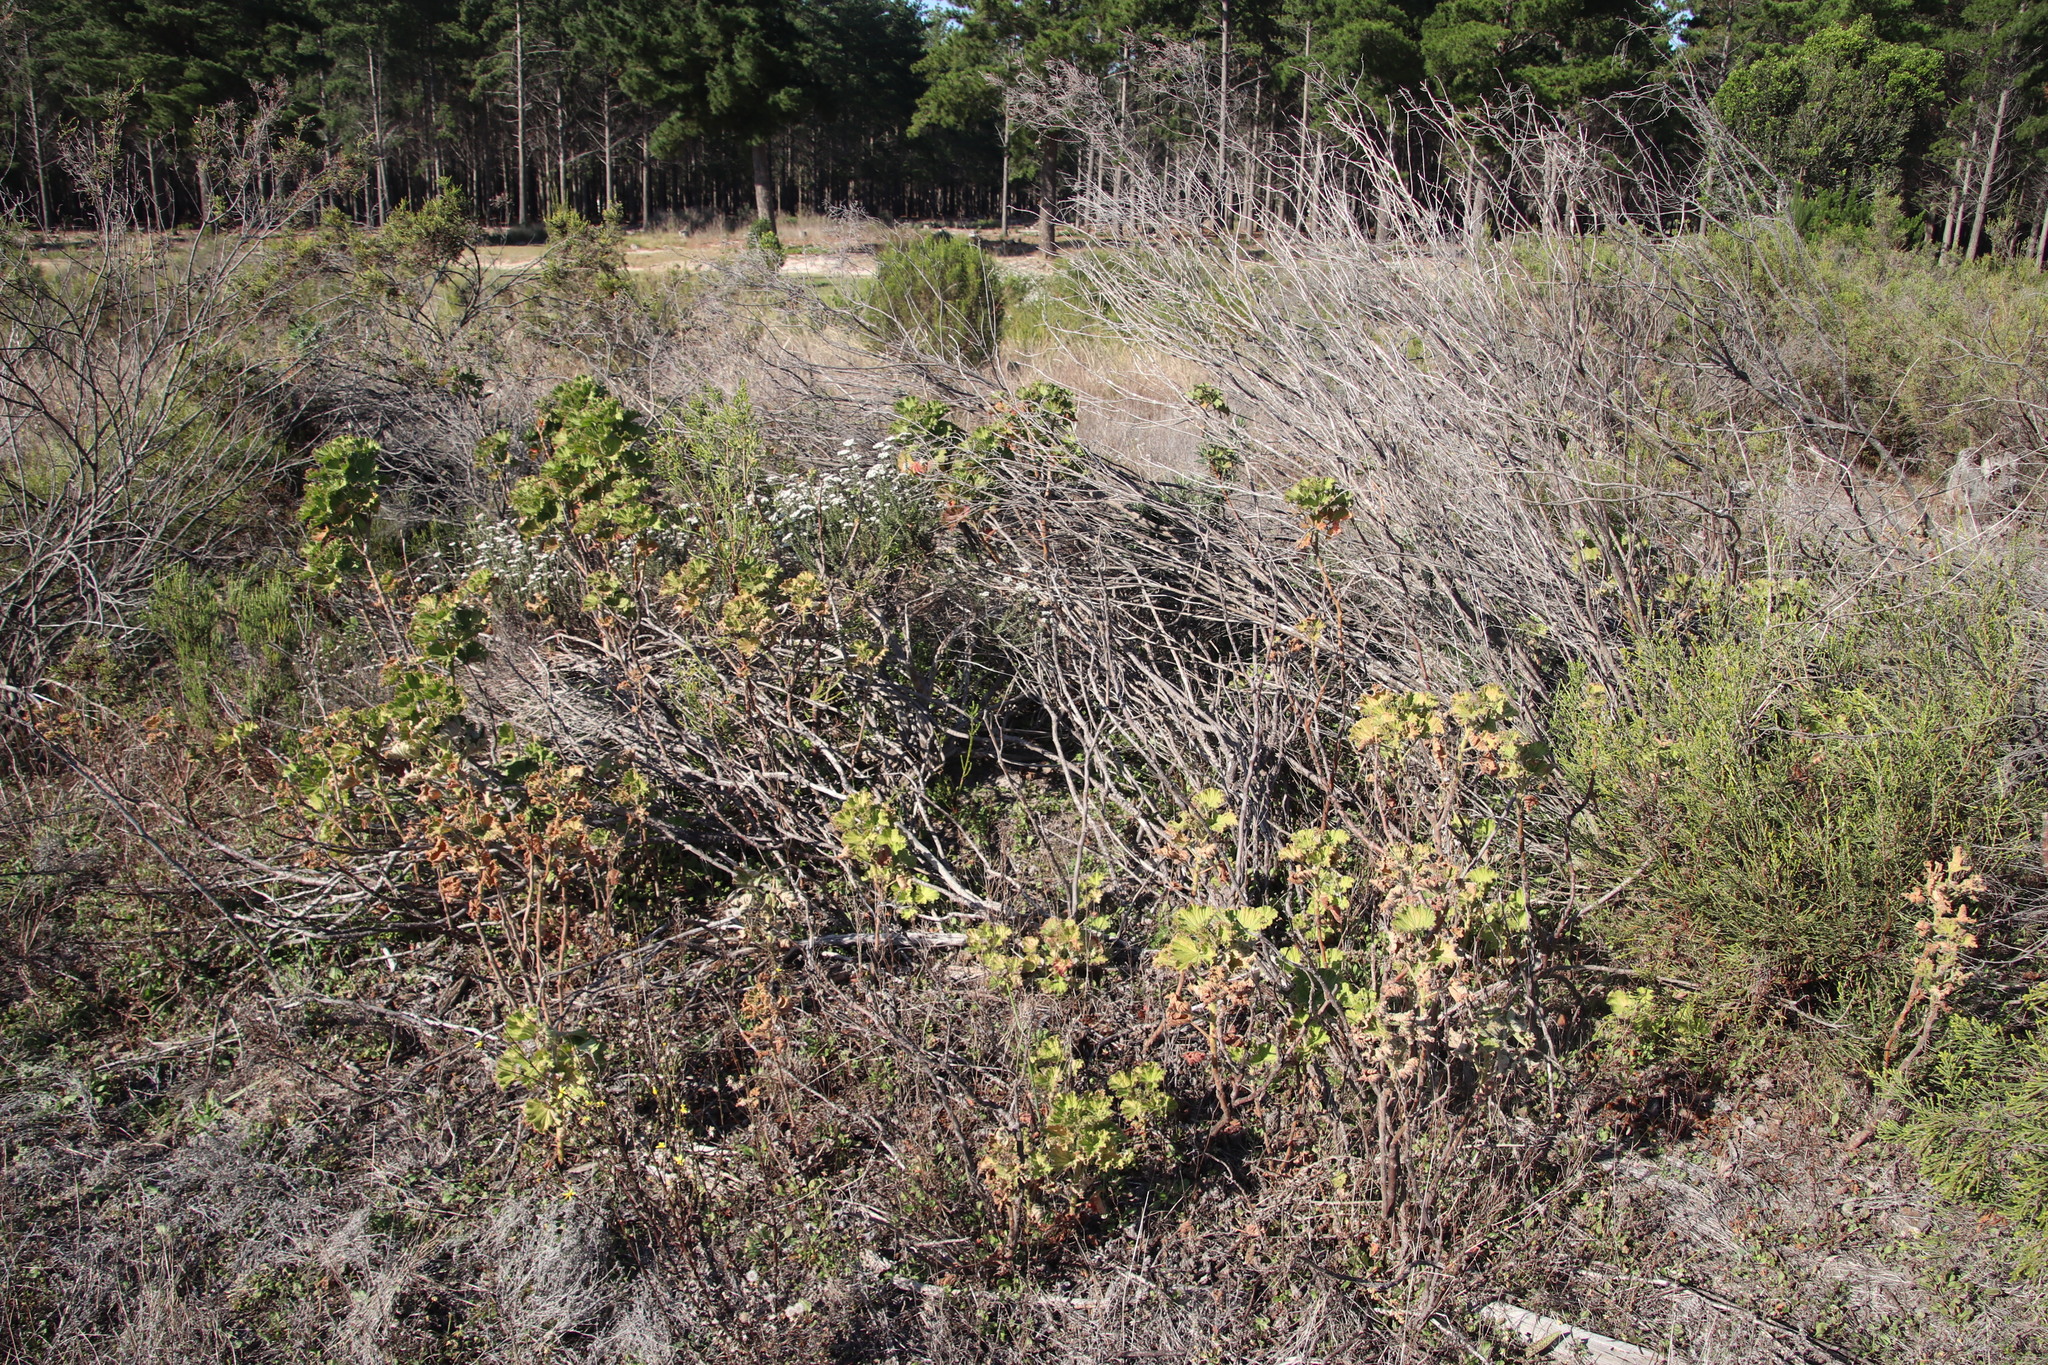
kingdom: Plantae
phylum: Tracheophyta
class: Magnoliopsida
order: Geraniales
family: Geraniaceae
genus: Pelargonium
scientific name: Pelargonium cucullatum
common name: Tree pelargonium
